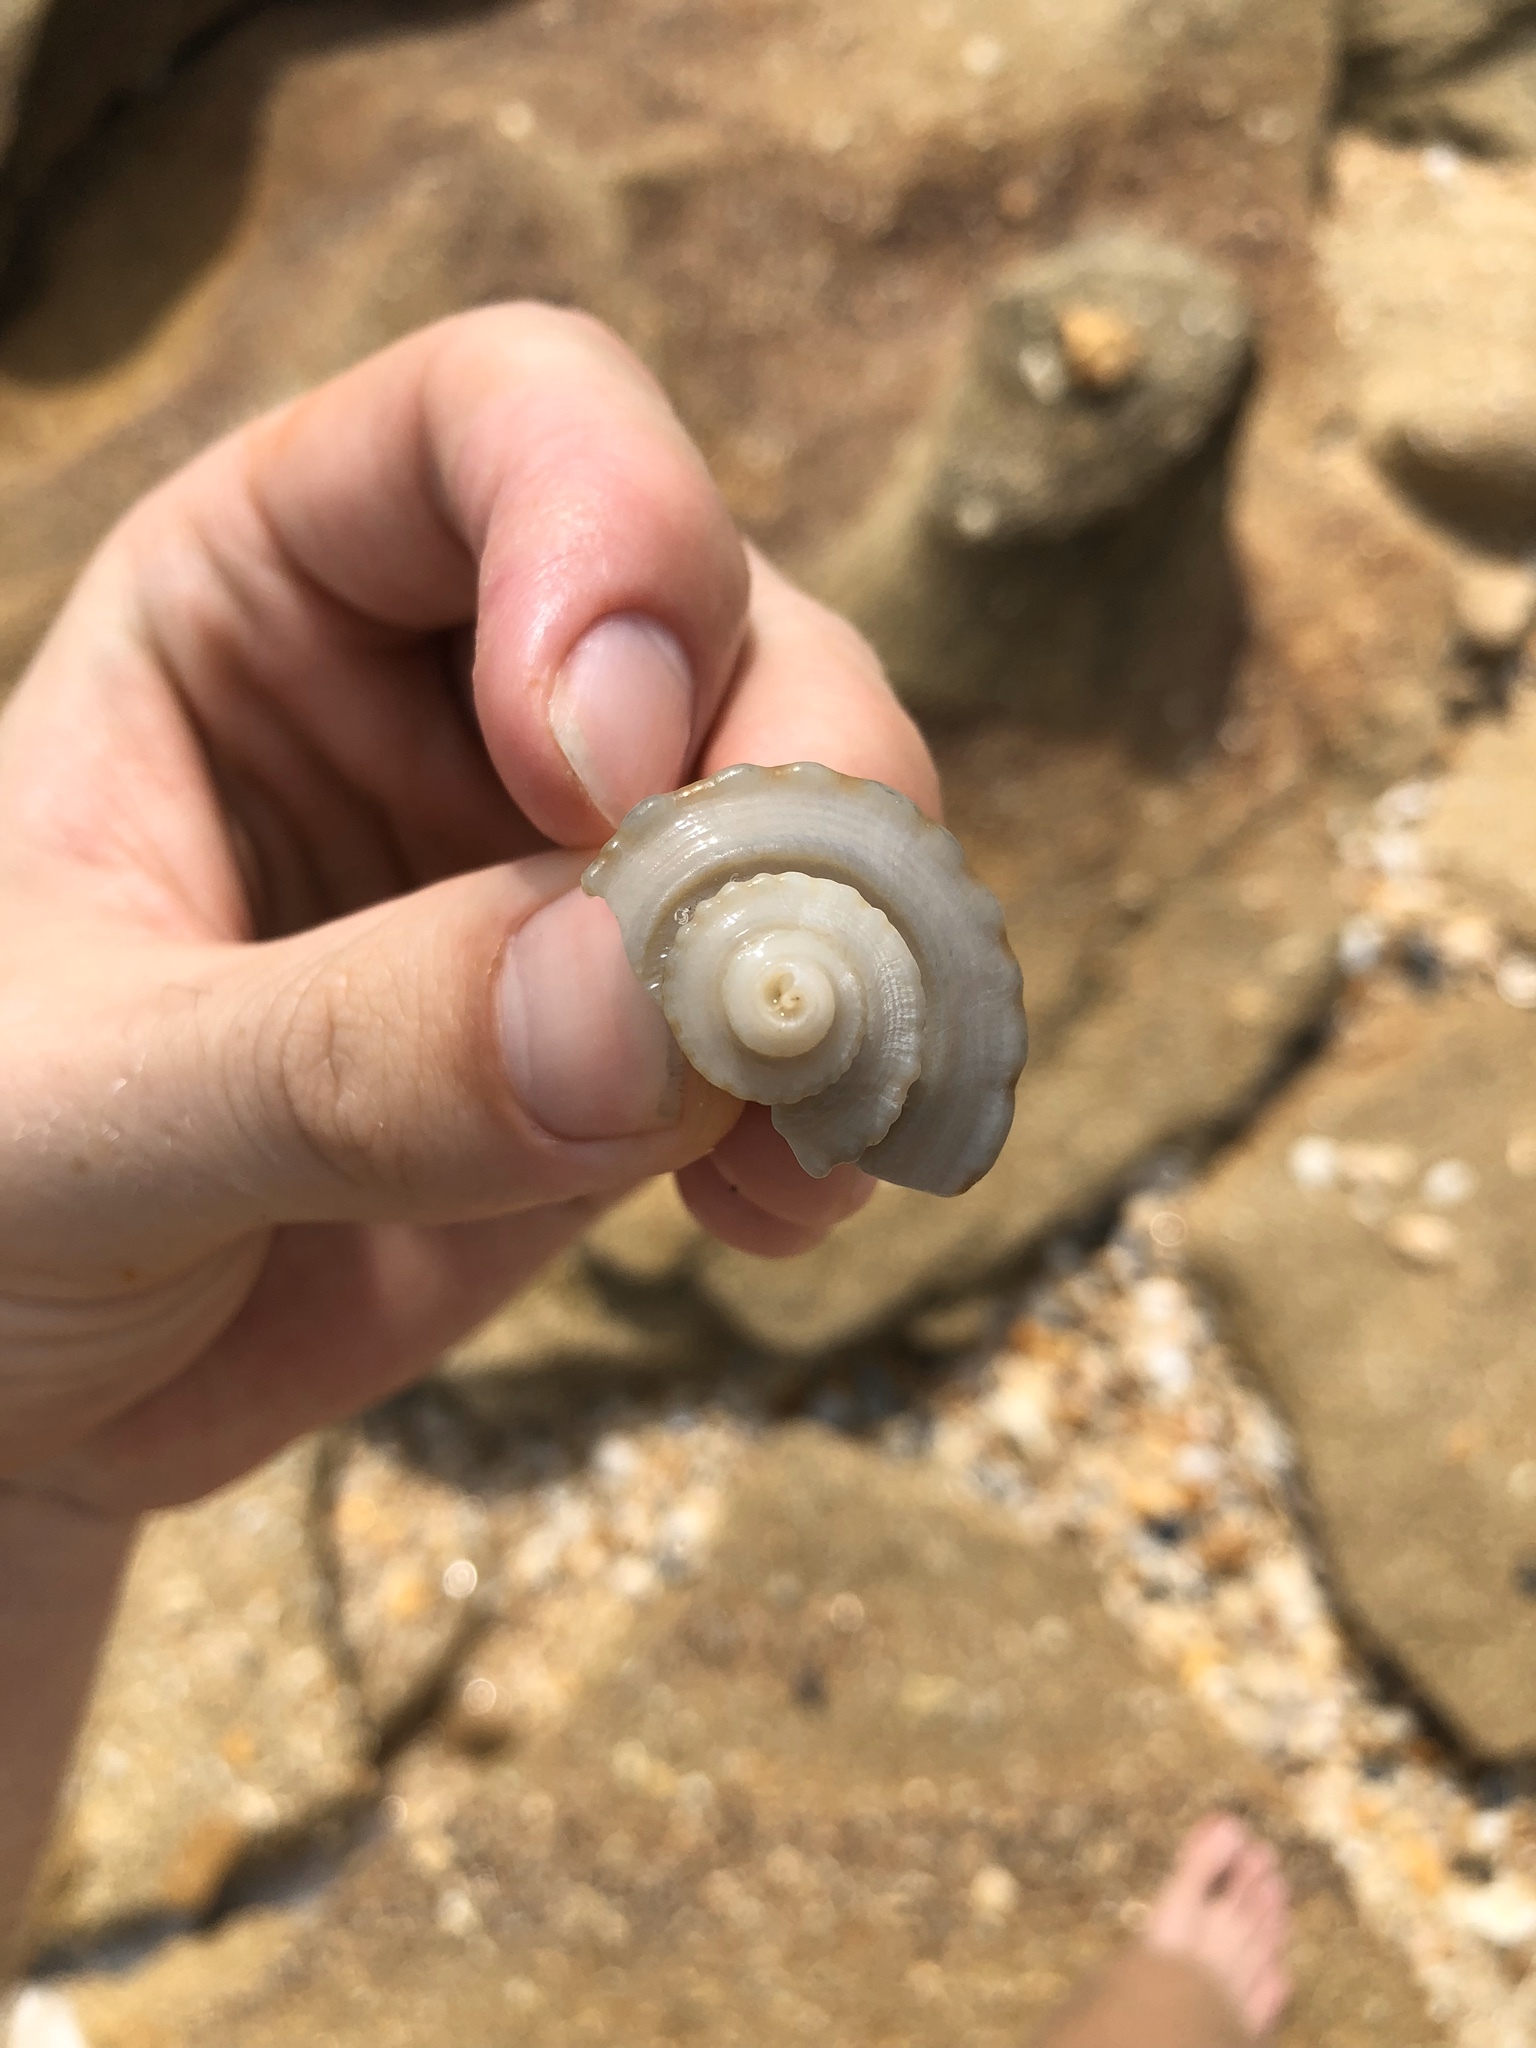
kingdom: Animalia
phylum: Mollusca
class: Gastropoda
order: Neogastropoda
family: Busyconidae
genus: Busycotypus
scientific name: Busycotypus canaliculatus
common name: Channeled whelk
